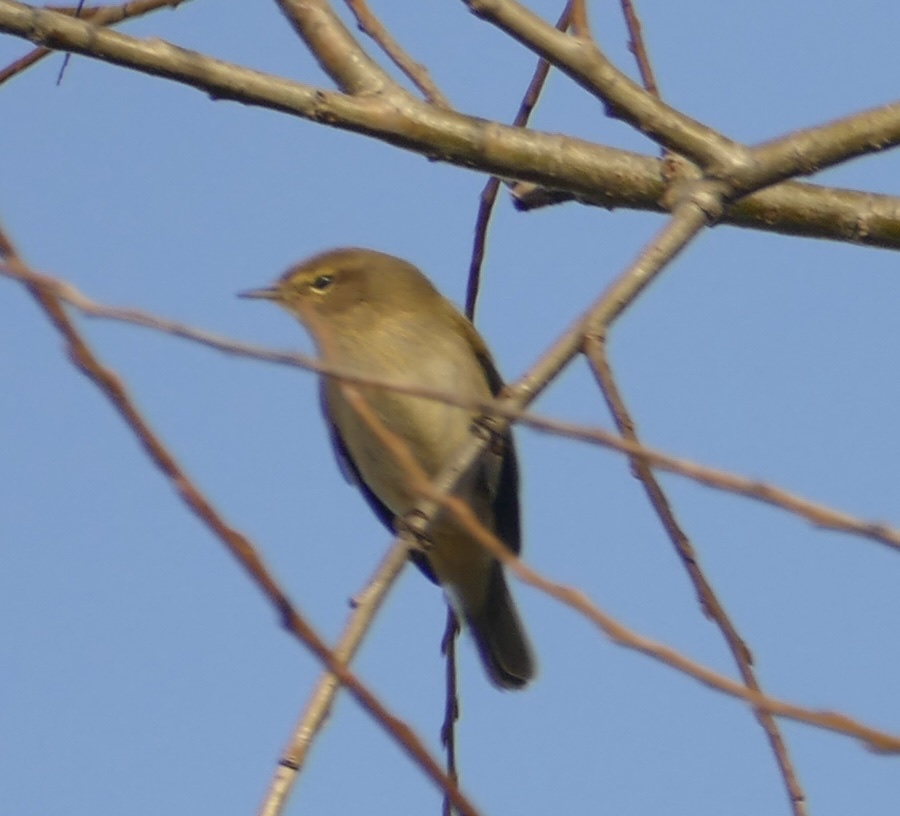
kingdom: Animalia
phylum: Chordata
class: Aves
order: Passeriformes
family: Phylloscopidae
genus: Phylloscopus
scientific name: Phylloscopus collybita
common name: Common chiffchaff
